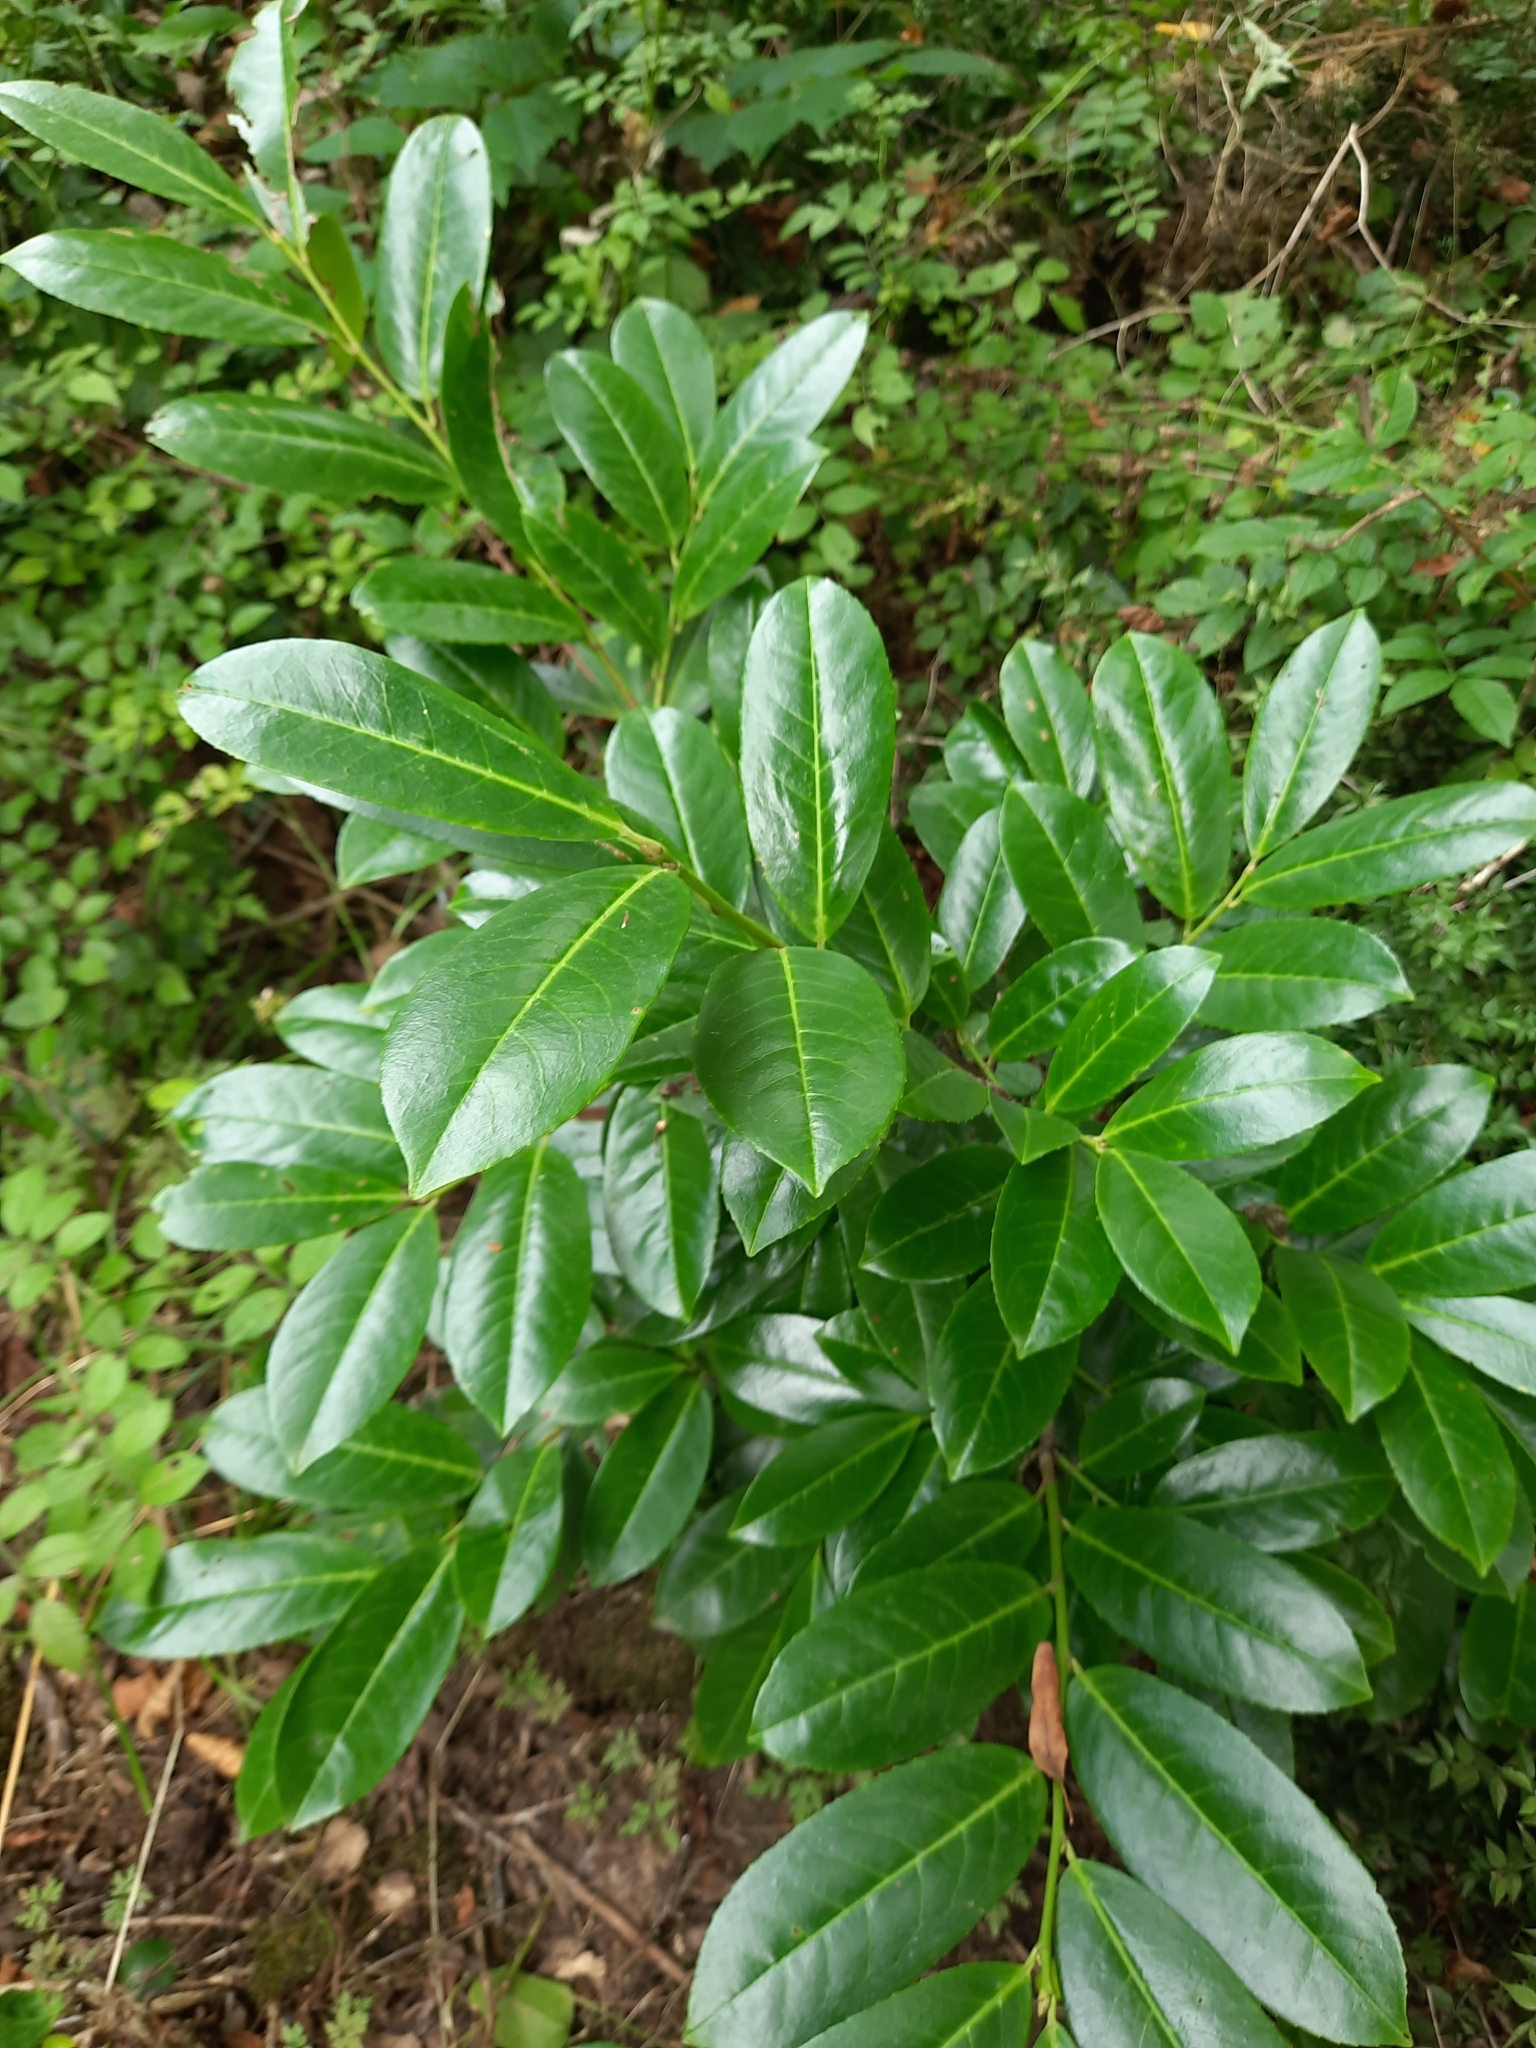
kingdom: Plantae
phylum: Tracheophyta
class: Magnoliopsida
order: Rosales
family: Rosaceae
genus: Prunus
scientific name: Prunus laurocerasus
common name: Cherry laurel
